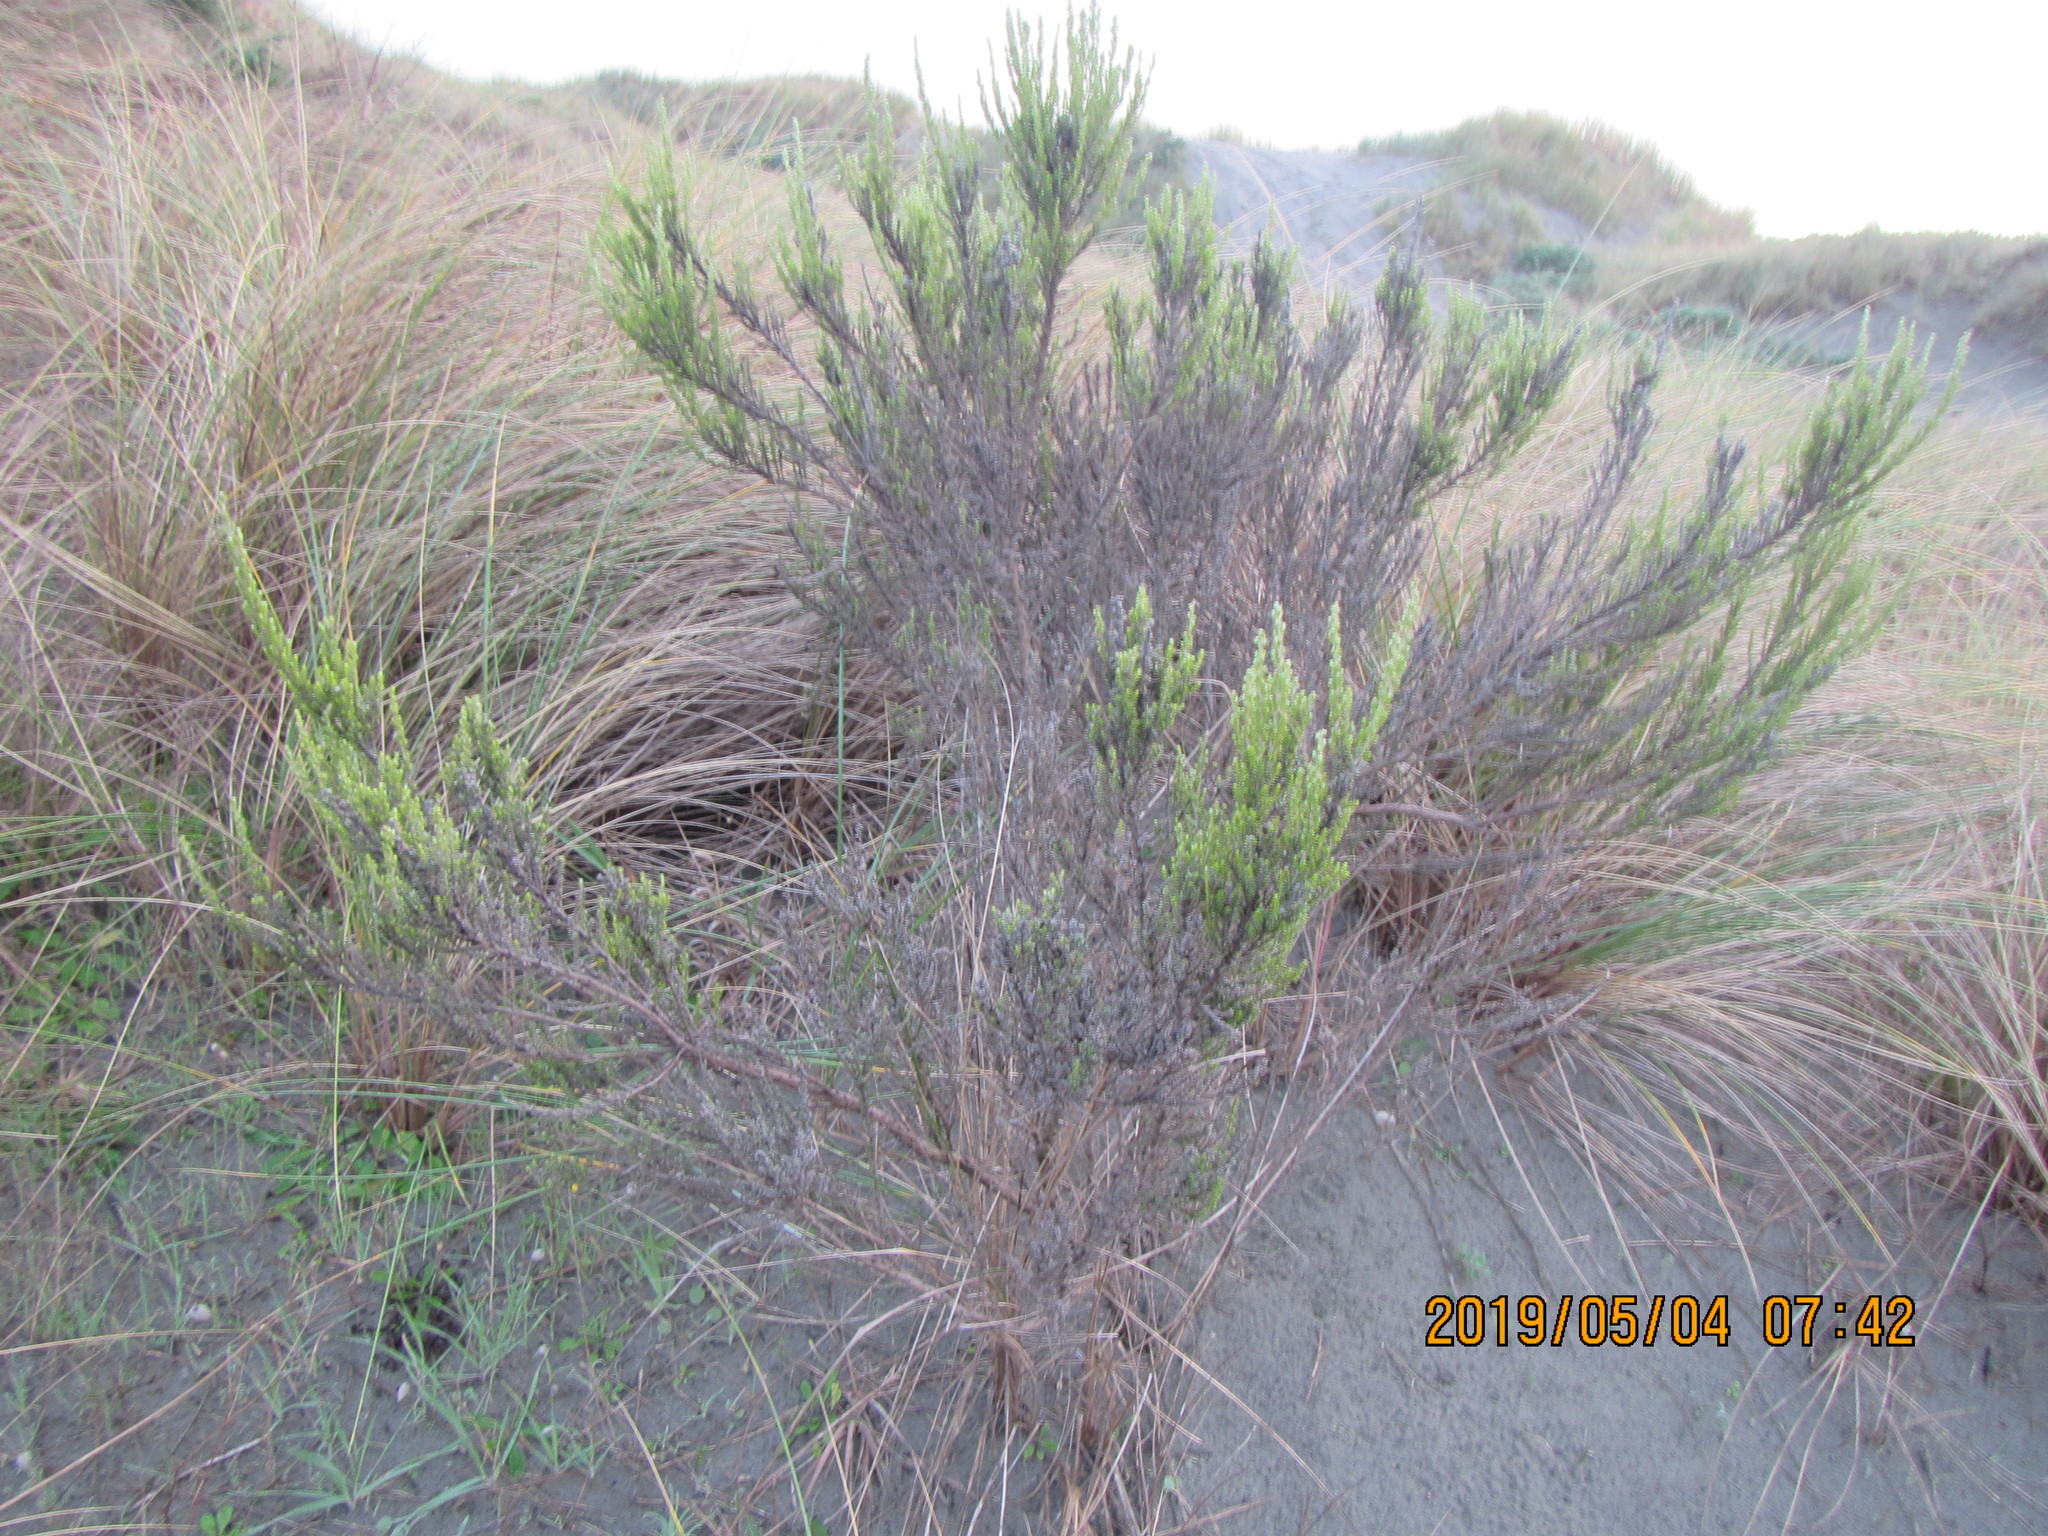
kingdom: Plantae
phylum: Tracheophyta
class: Magnoliopsida
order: Asterales
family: Asteraceae
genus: Ozothamnus
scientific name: Ozothamnus leptophyllus
